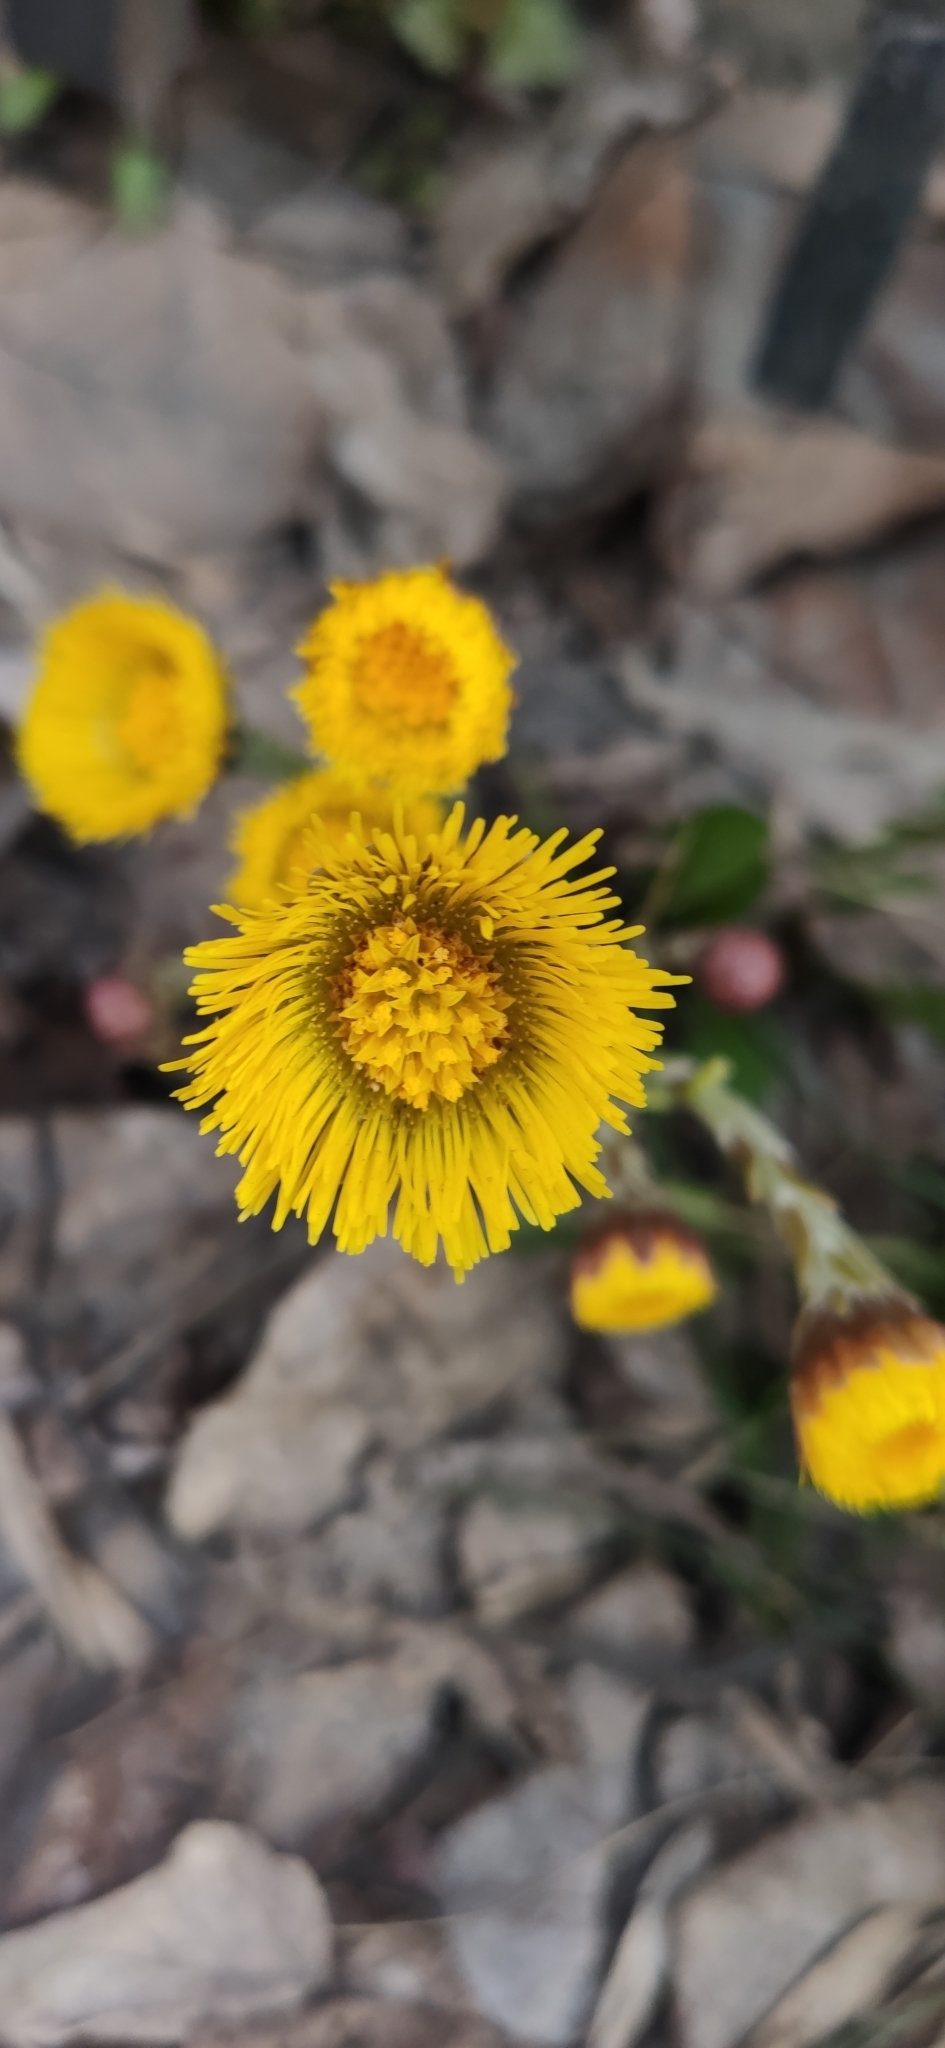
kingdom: Plantae
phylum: Tracheophyta
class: Magnoliopsida
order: Asterales
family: Asteraceae
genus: Tussilago
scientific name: Tussilago farfara
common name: Coltsfoot
